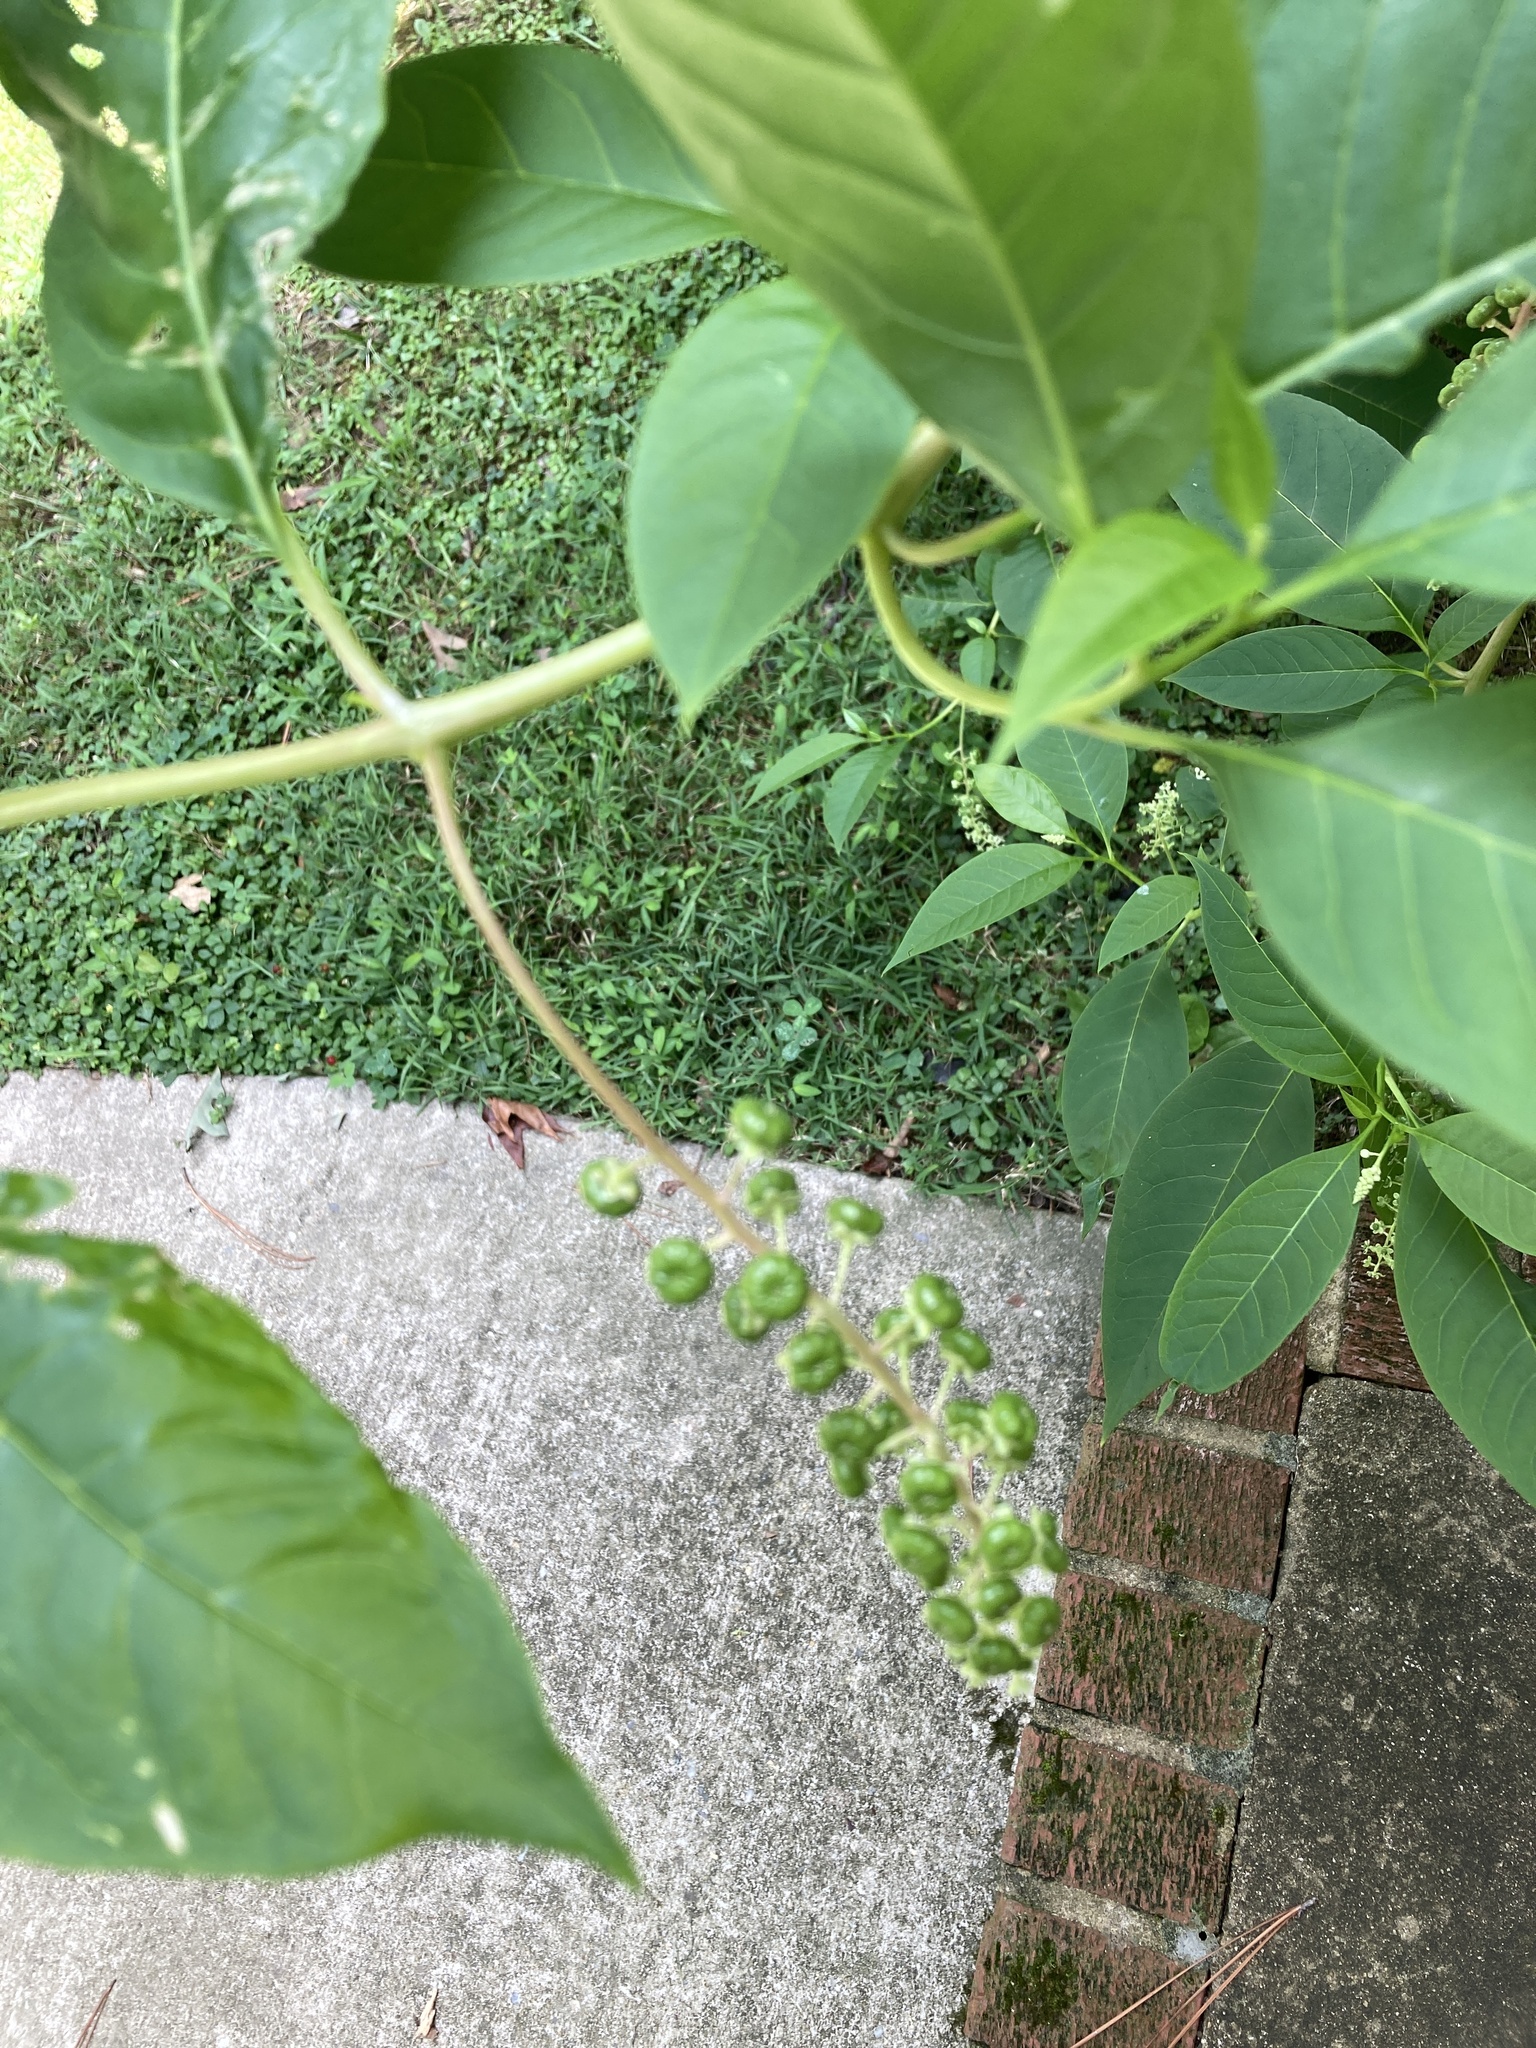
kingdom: Plantae
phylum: Tracheophyta
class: Magnoliopsida
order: Caryophyllales
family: Phytolaccaceae
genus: Phytolacca
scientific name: Phytolacca americana
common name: American pokeweed
